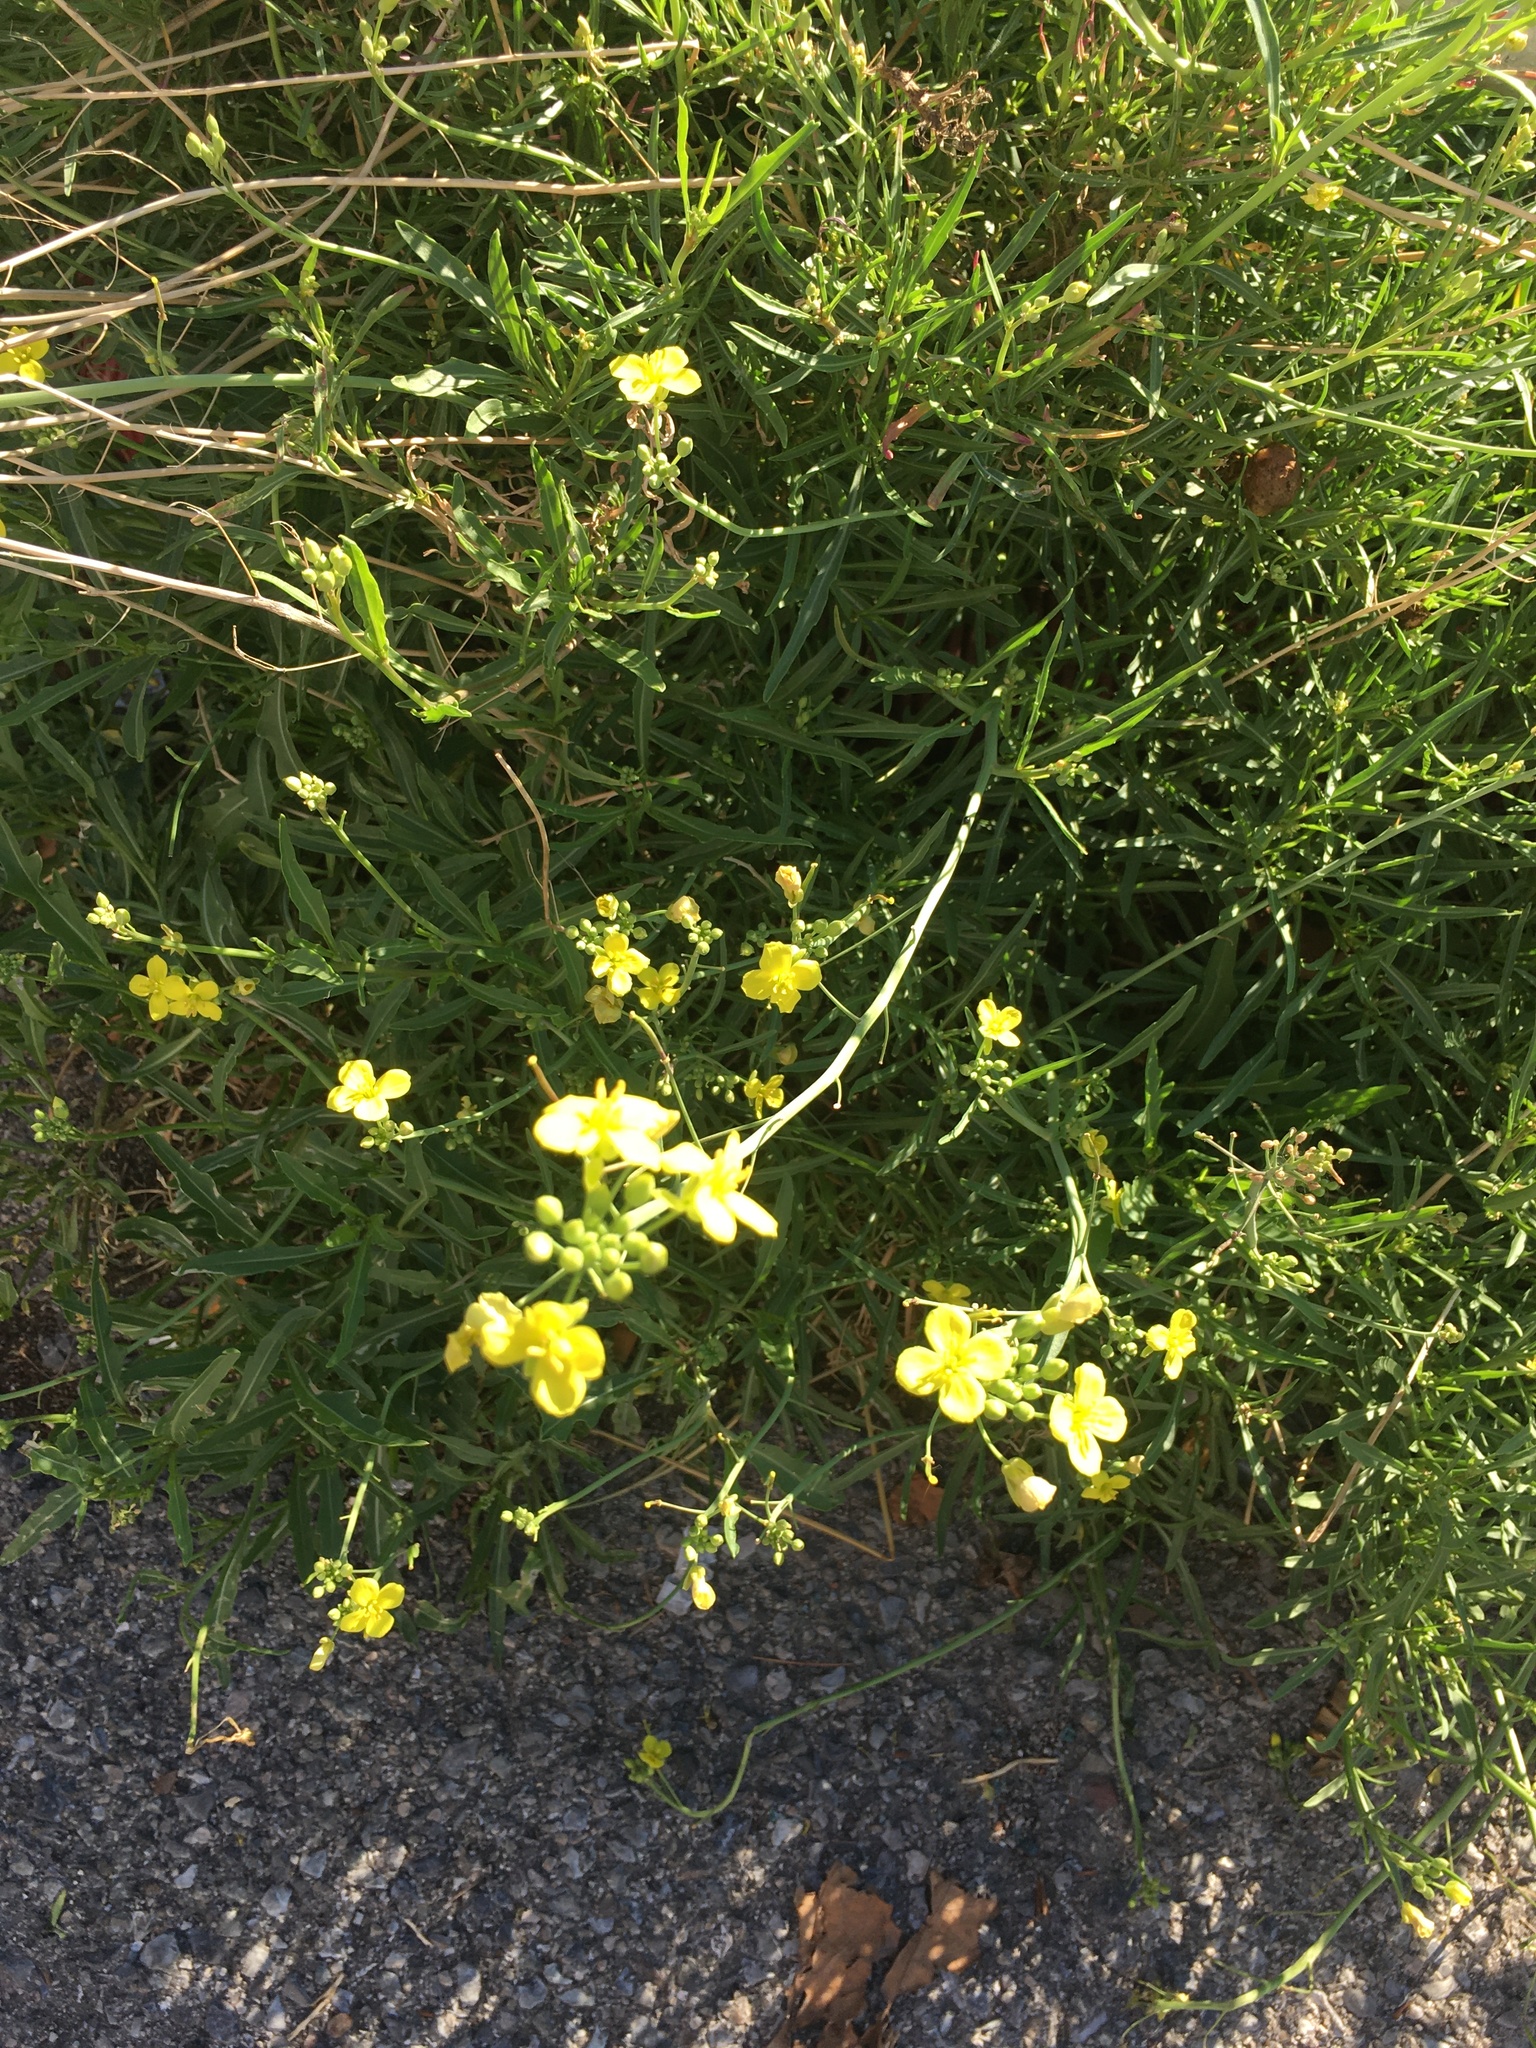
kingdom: Plantae
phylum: Tracheophyta
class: Magnoliopsida
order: Brassicales
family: Brassicaceae
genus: Diplotaxis
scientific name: Diplotaxis tenuifolia
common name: Perennial wall-rocket
